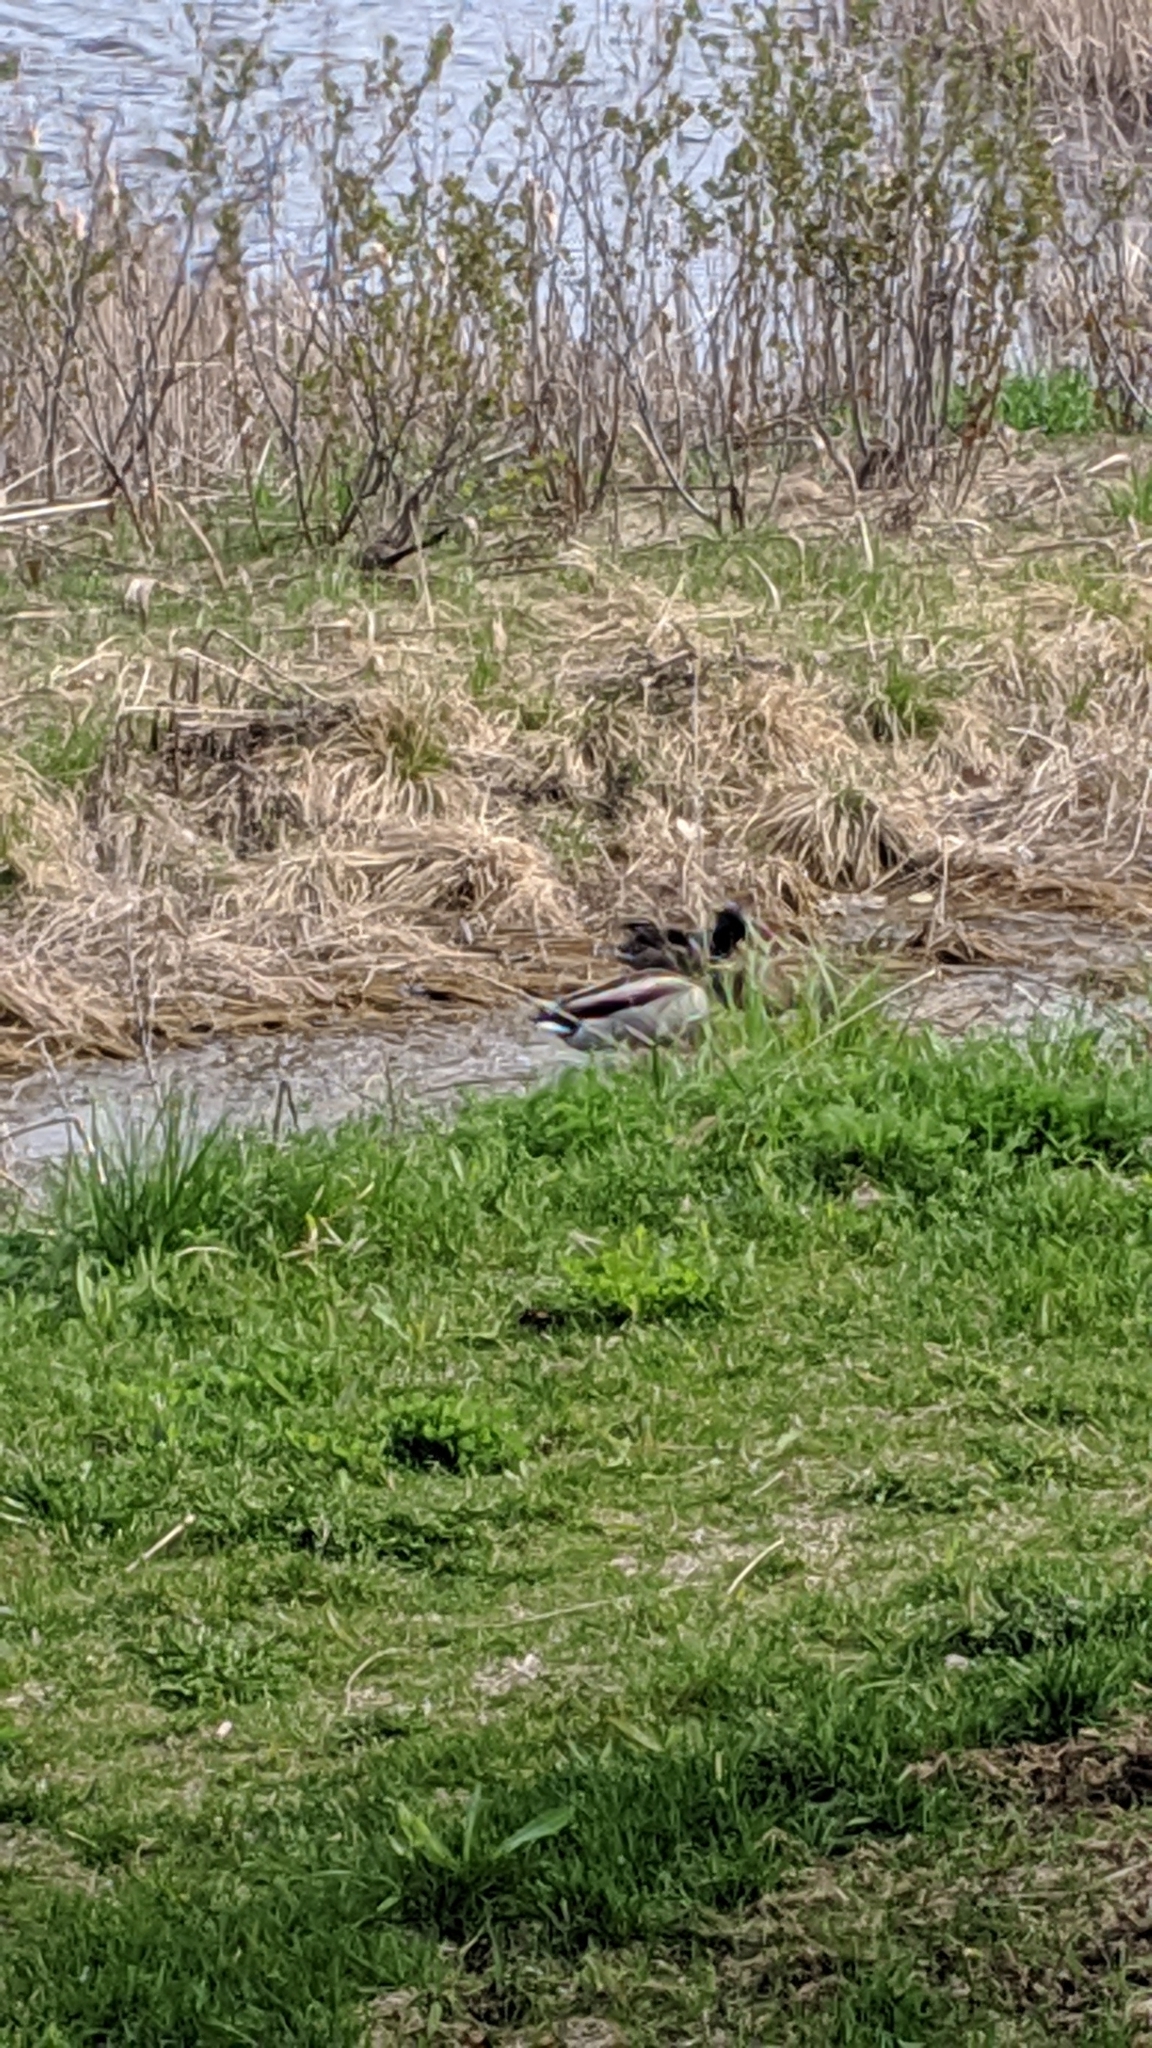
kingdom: Animalia
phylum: Chordata
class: Aves
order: Anseriformes
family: Anatidae
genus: Anas
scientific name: Anas platyrhynchos
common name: Mallard
